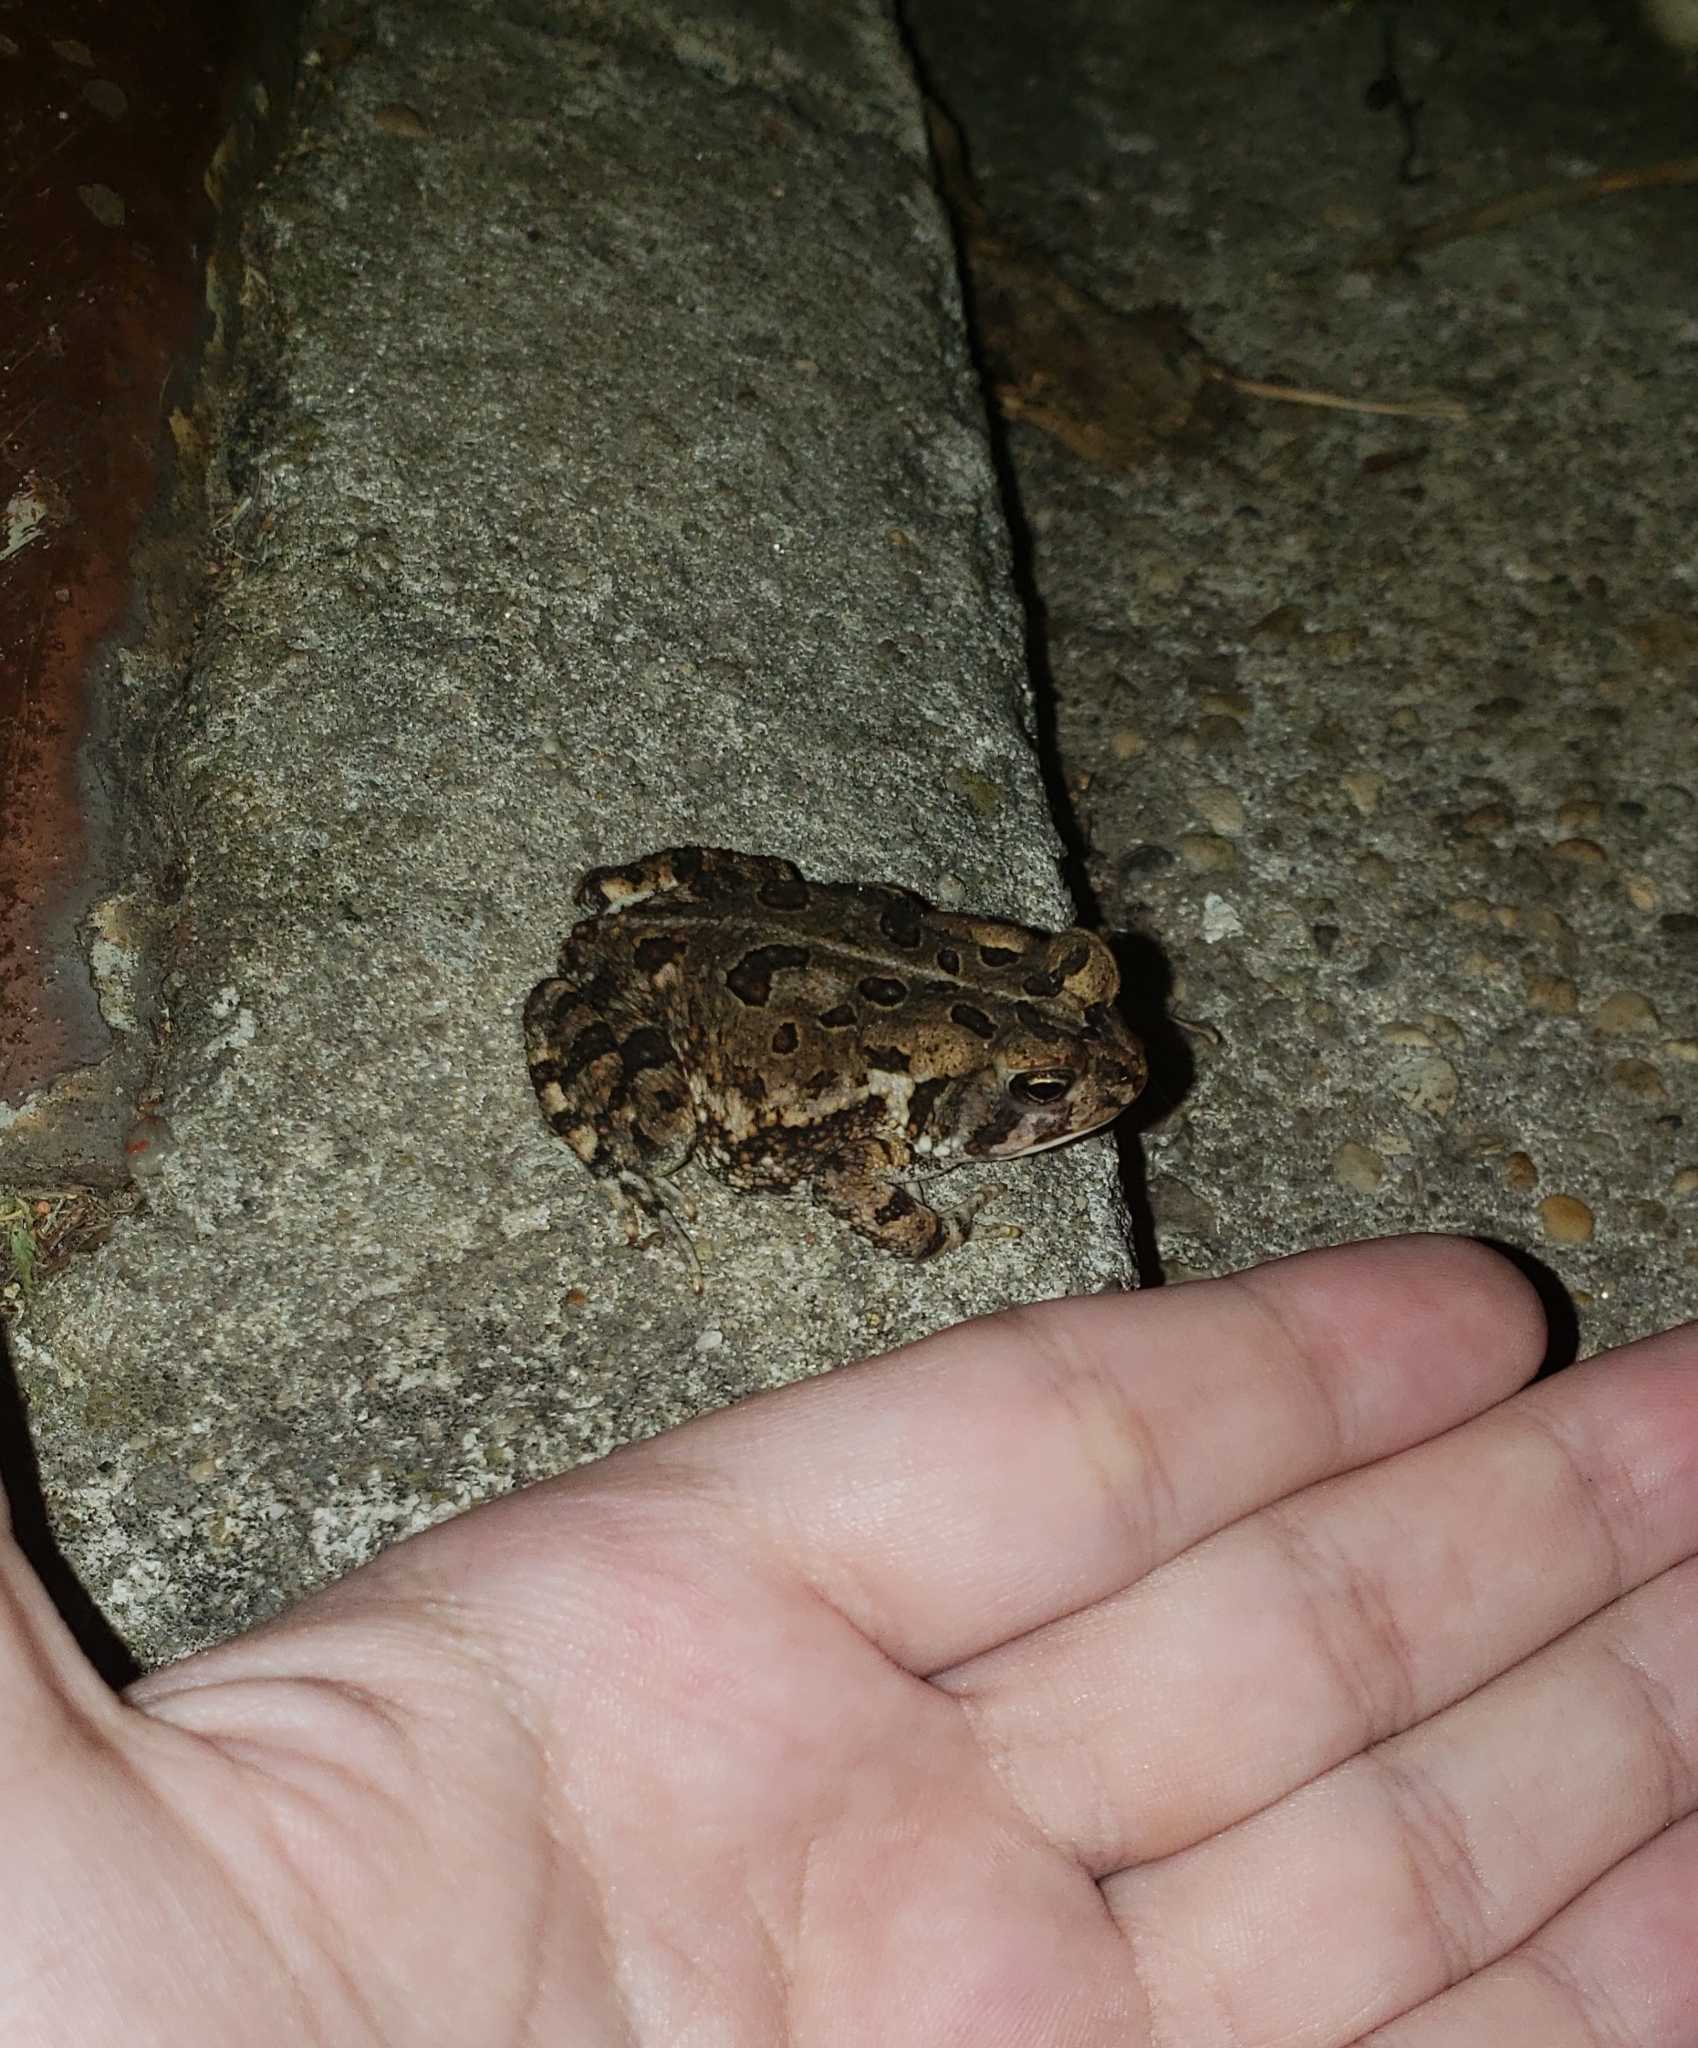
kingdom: Animalia
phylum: Chordata
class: Amphibia
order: Anura
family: Bufonidae
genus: Anaxyrus
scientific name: Anaxyrus fowleri
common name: Fowler's toad
